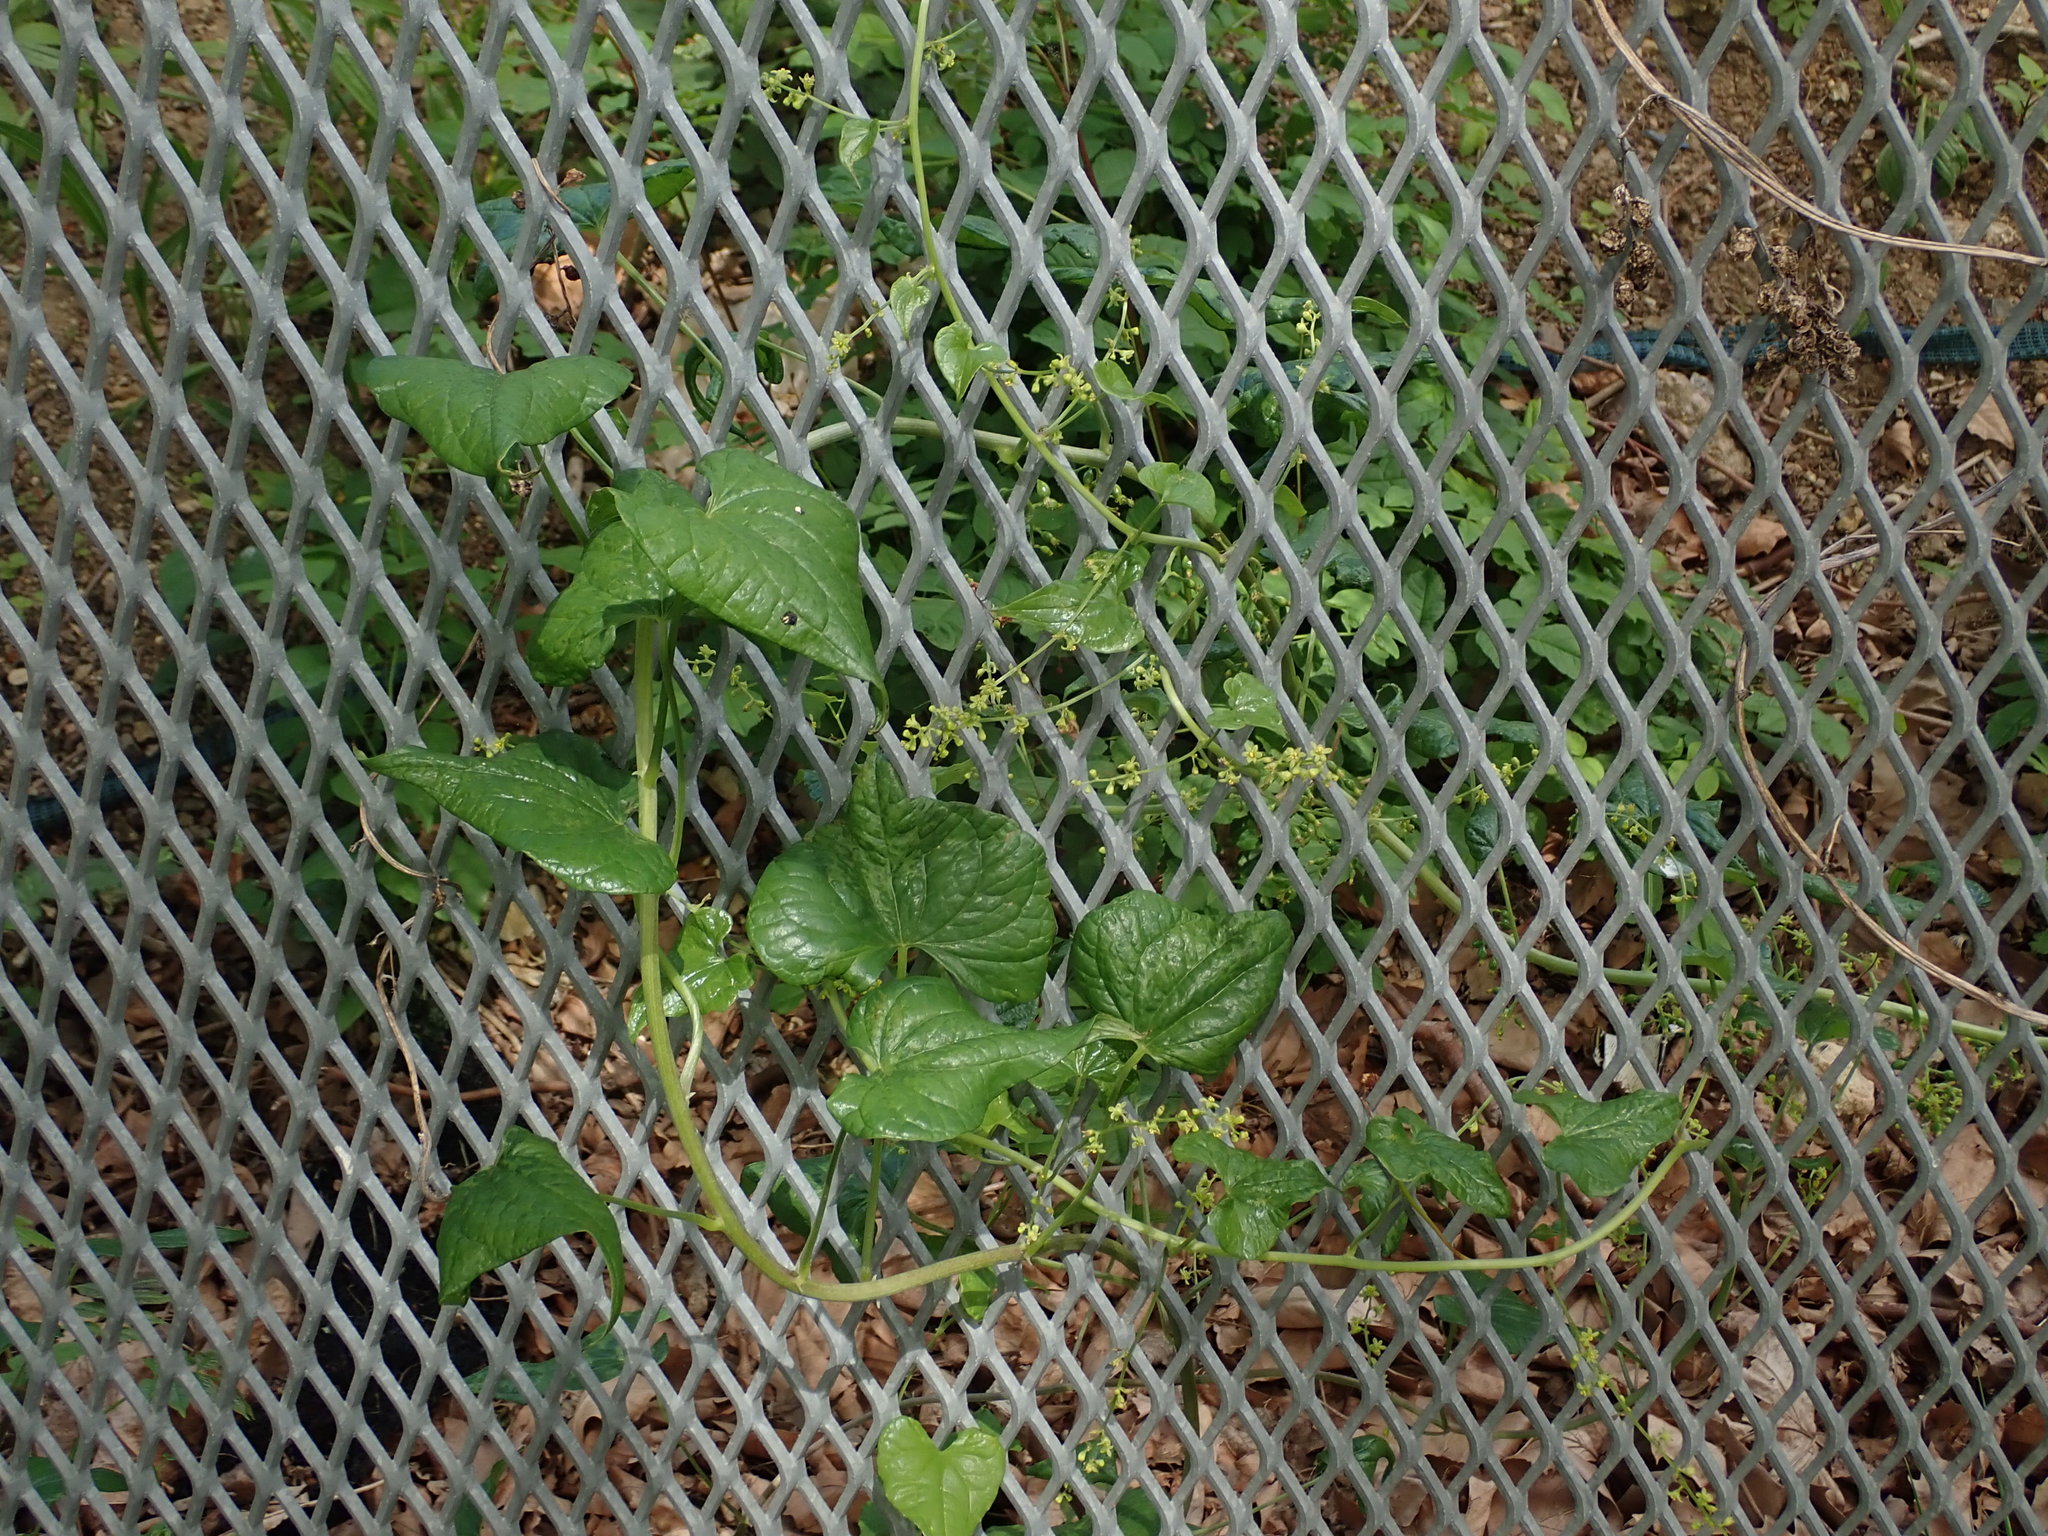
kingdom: Plantae
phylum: Tracheophyta
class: Liliopsida
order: Dioscoreales
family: Dioscoreaceae
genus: Dioscorea
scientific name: Dioscorea communis
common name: Black-bindweed
